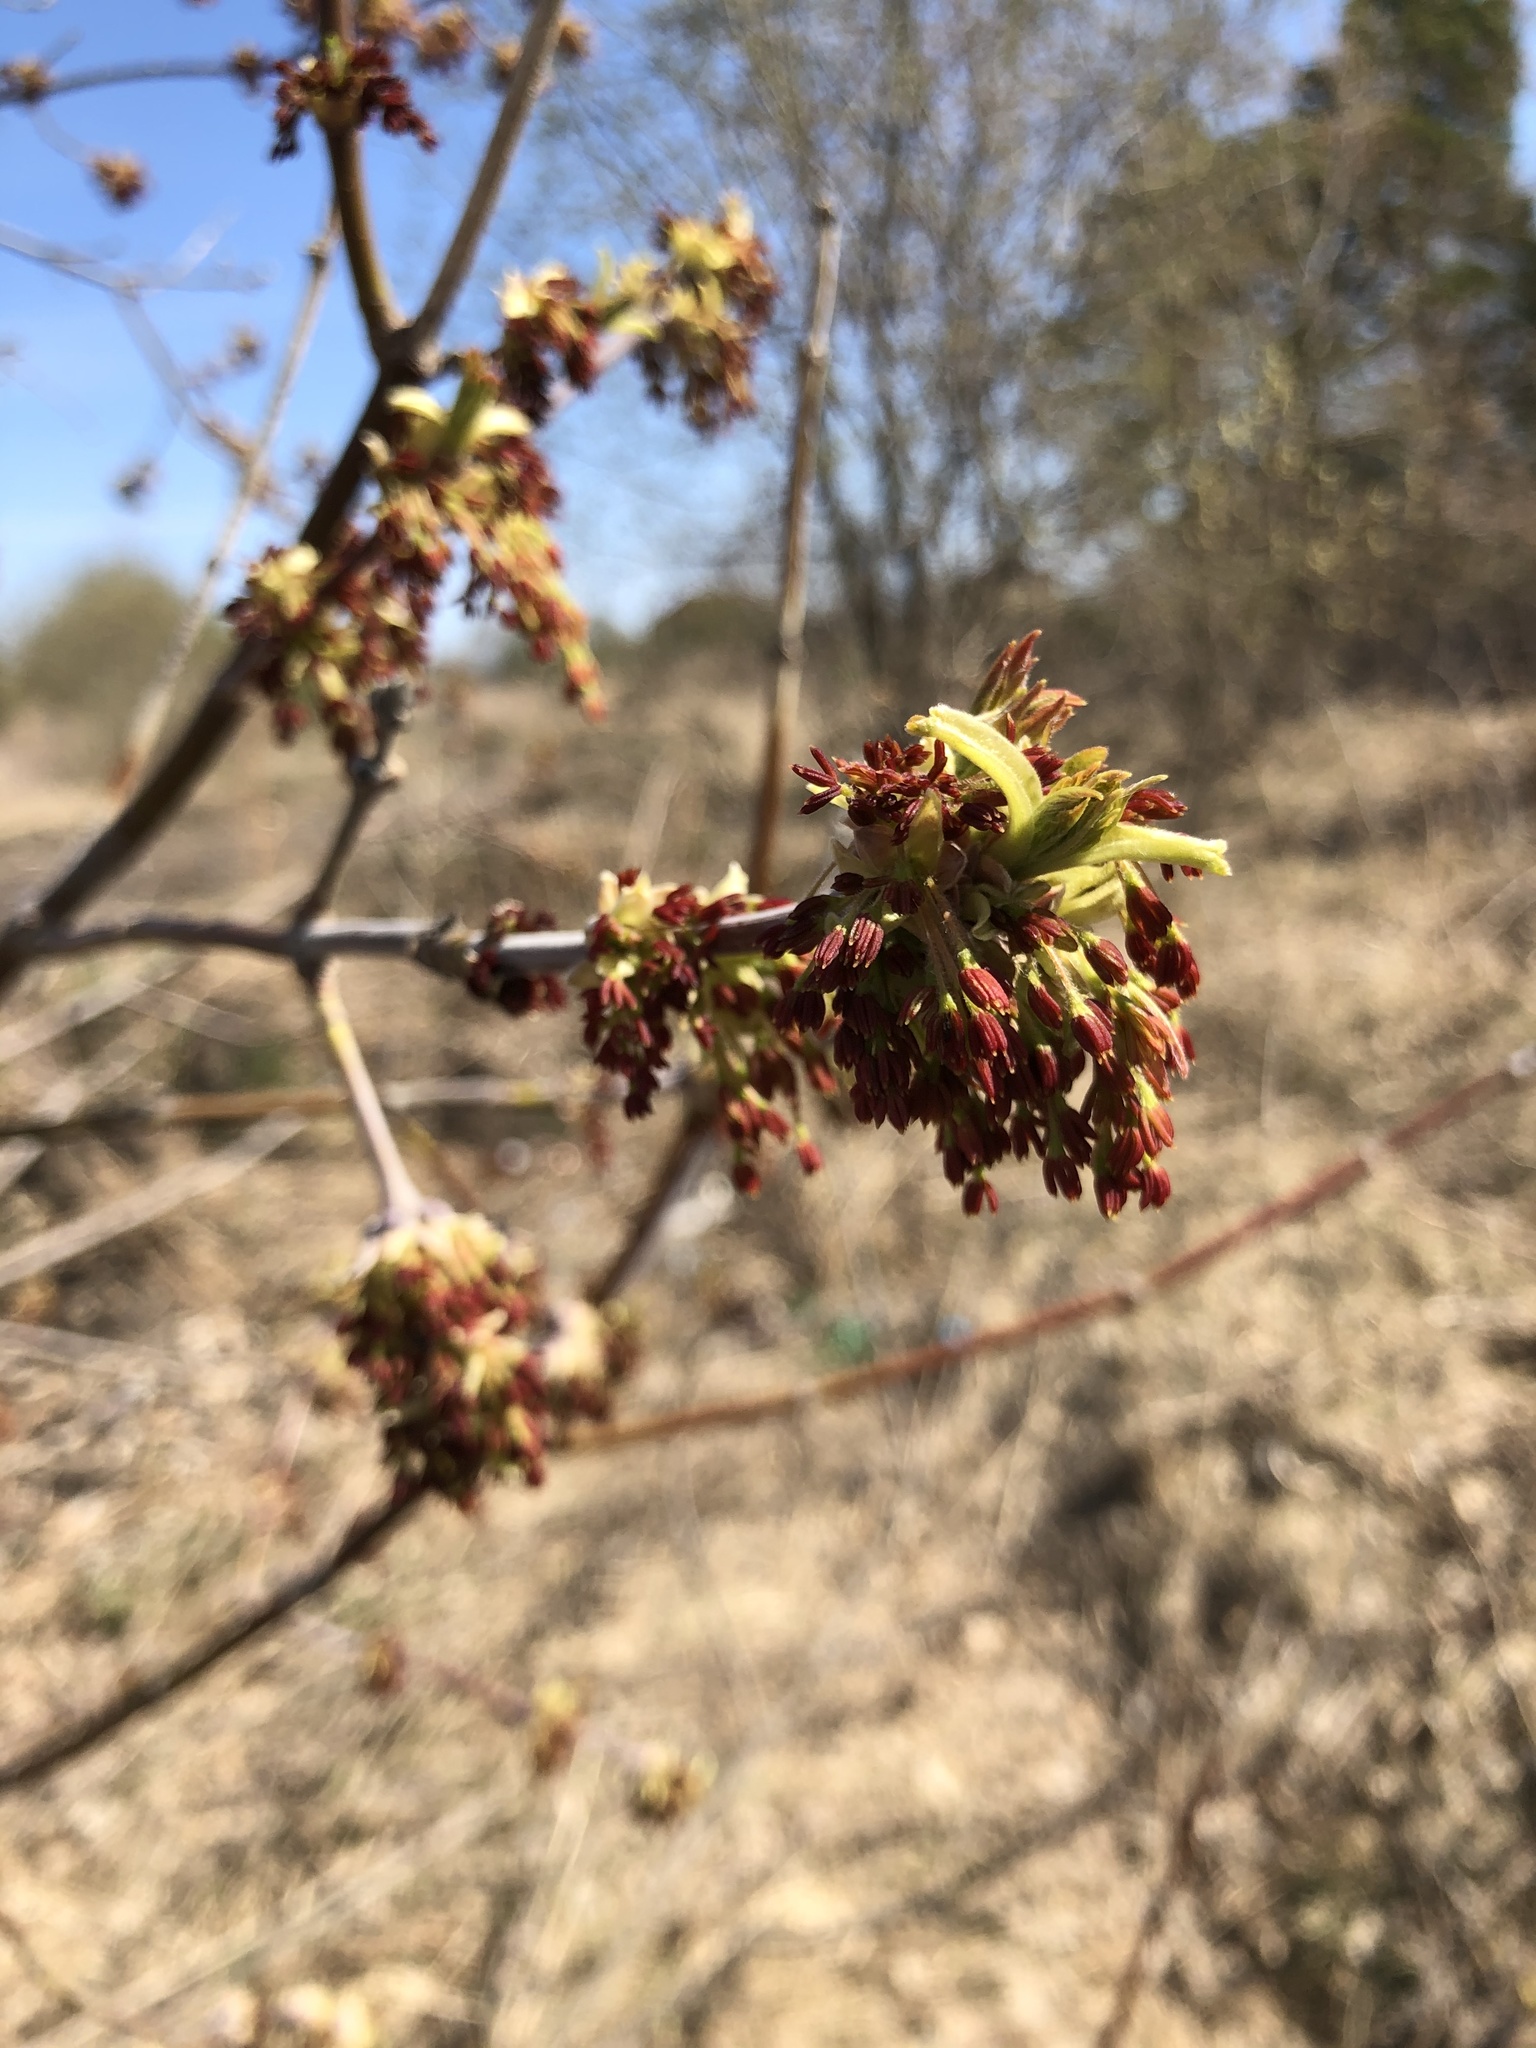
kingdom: Plantae
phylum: Tracheophyta
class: Magnoliopsida
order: Sapindales
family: Sapindaceae
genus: Acer
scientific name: Acer negundo
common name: Ashleaf maple
